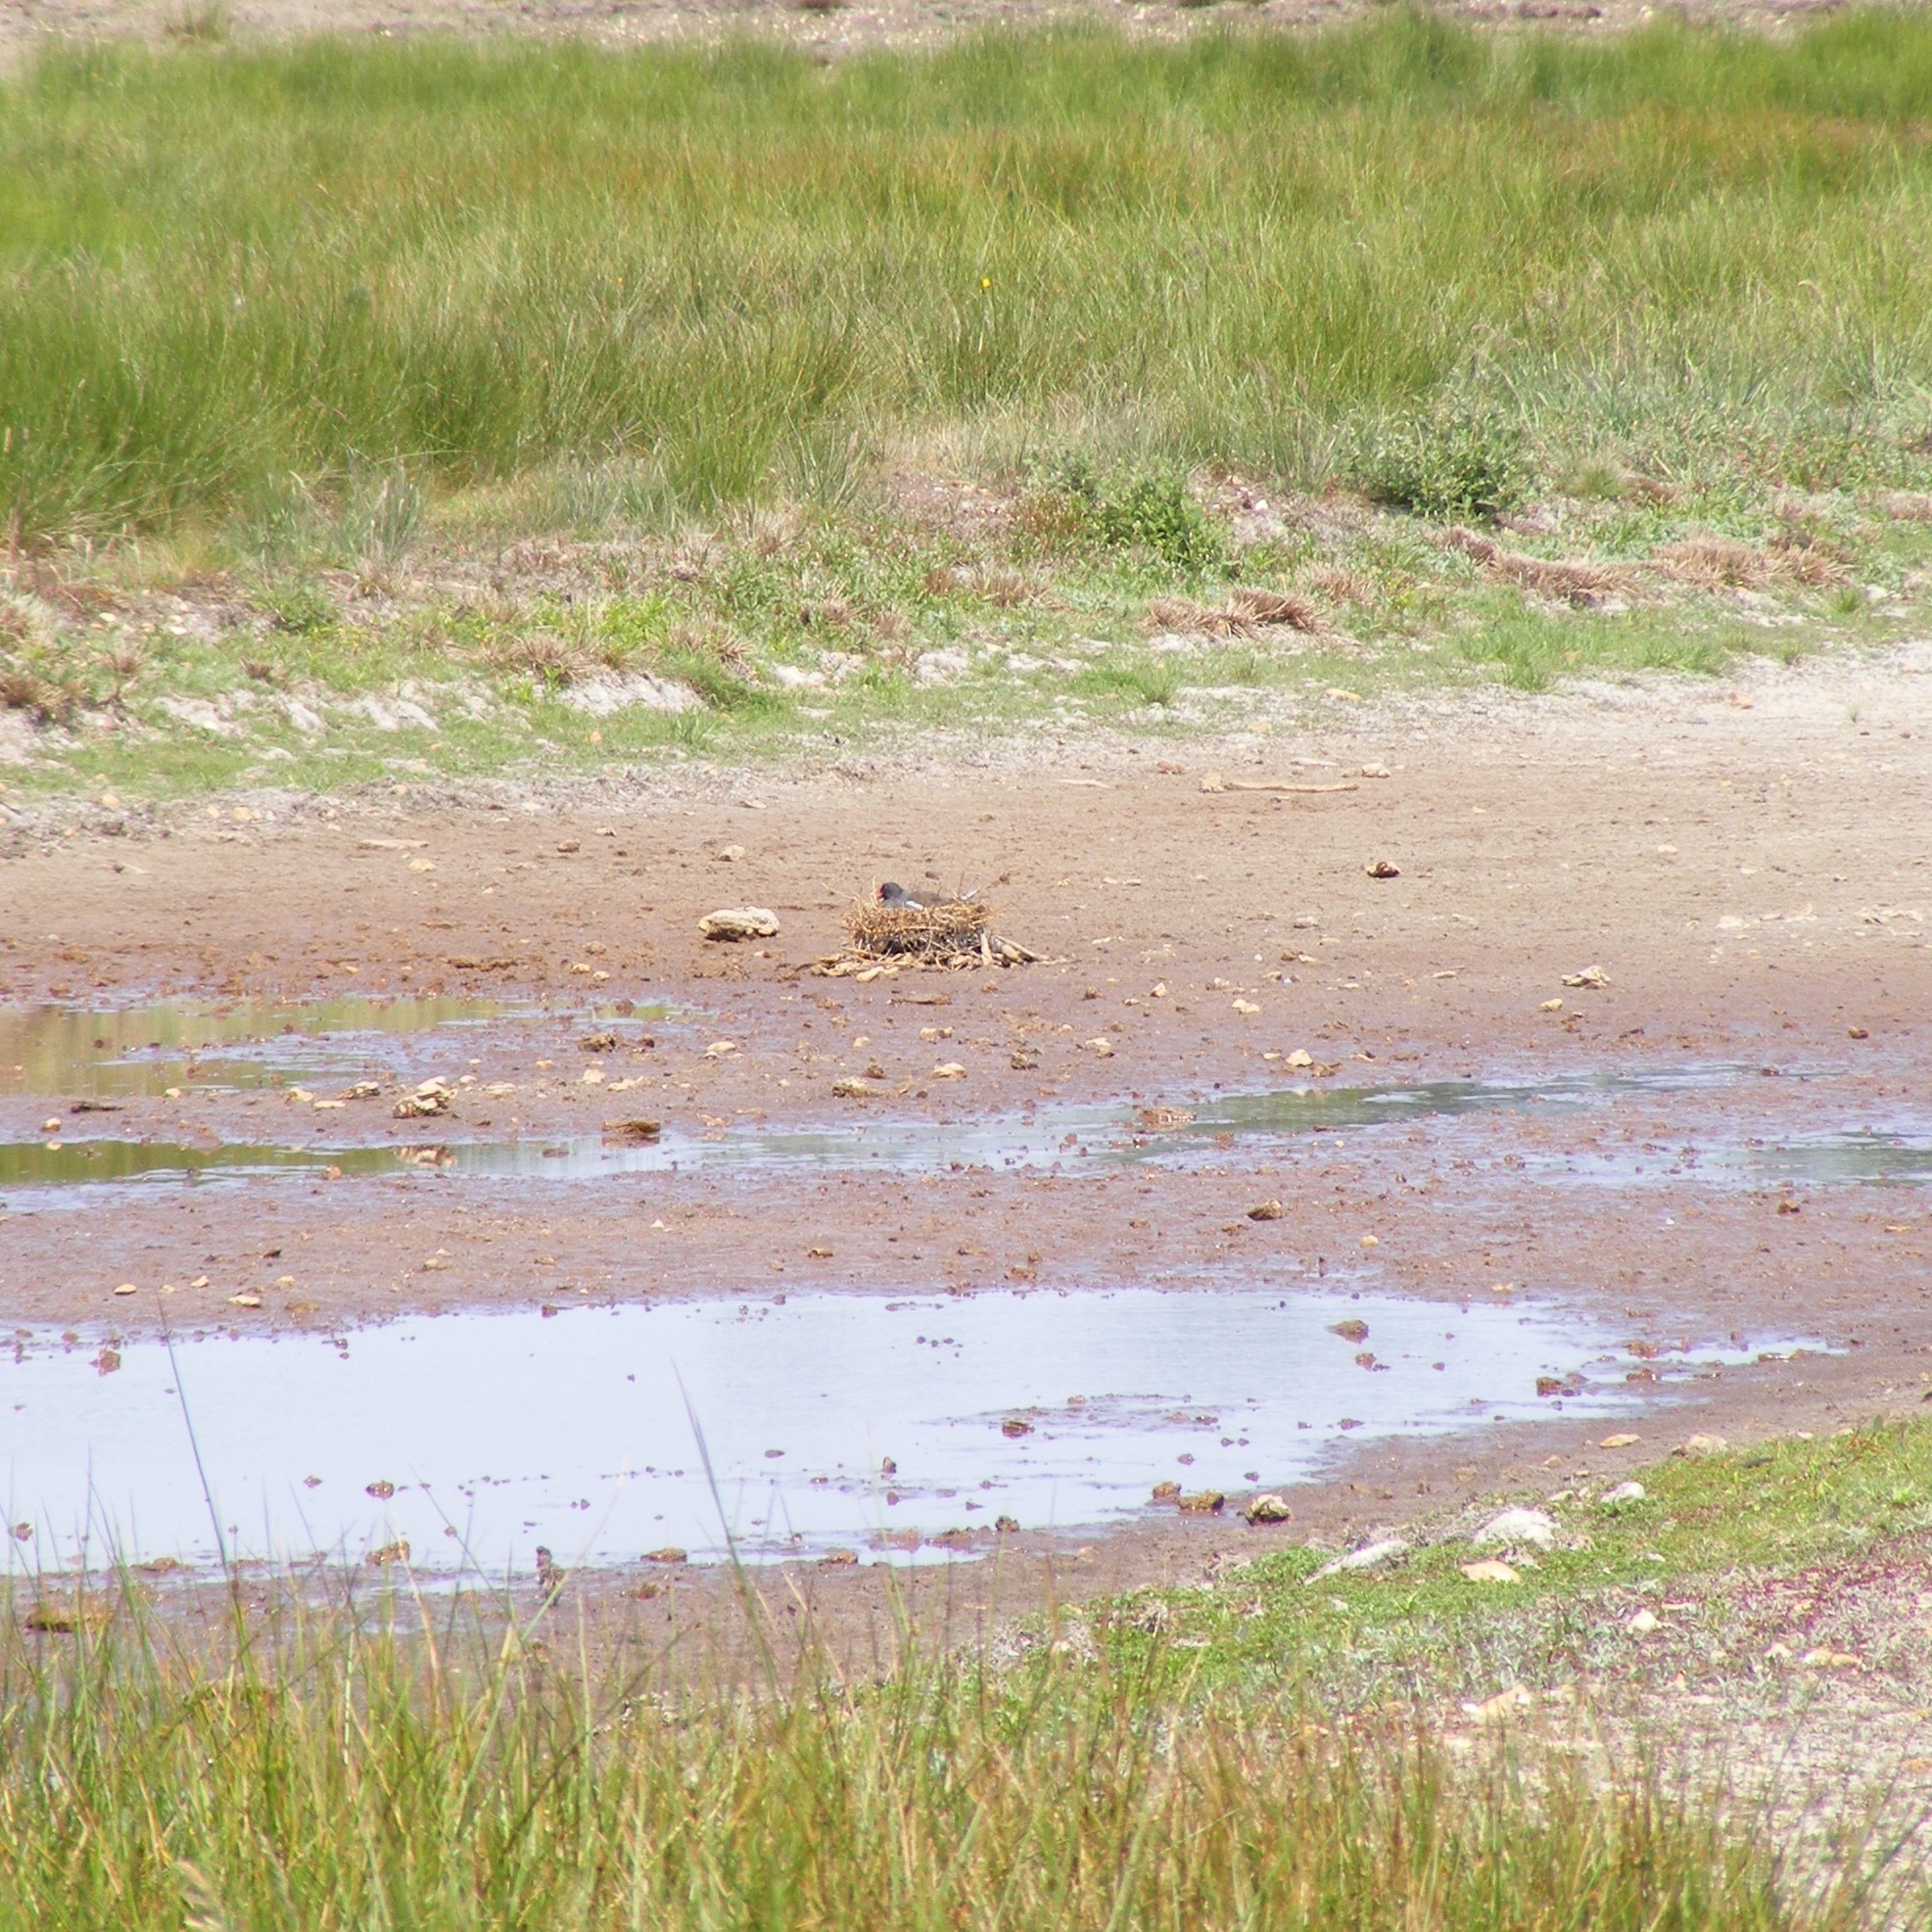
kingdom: Animalia
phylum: Chordata
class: Aves
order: Gruiformes
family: Rallidae
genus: Gallinula
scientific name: Gallinula chloropus
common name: Common moorhen
